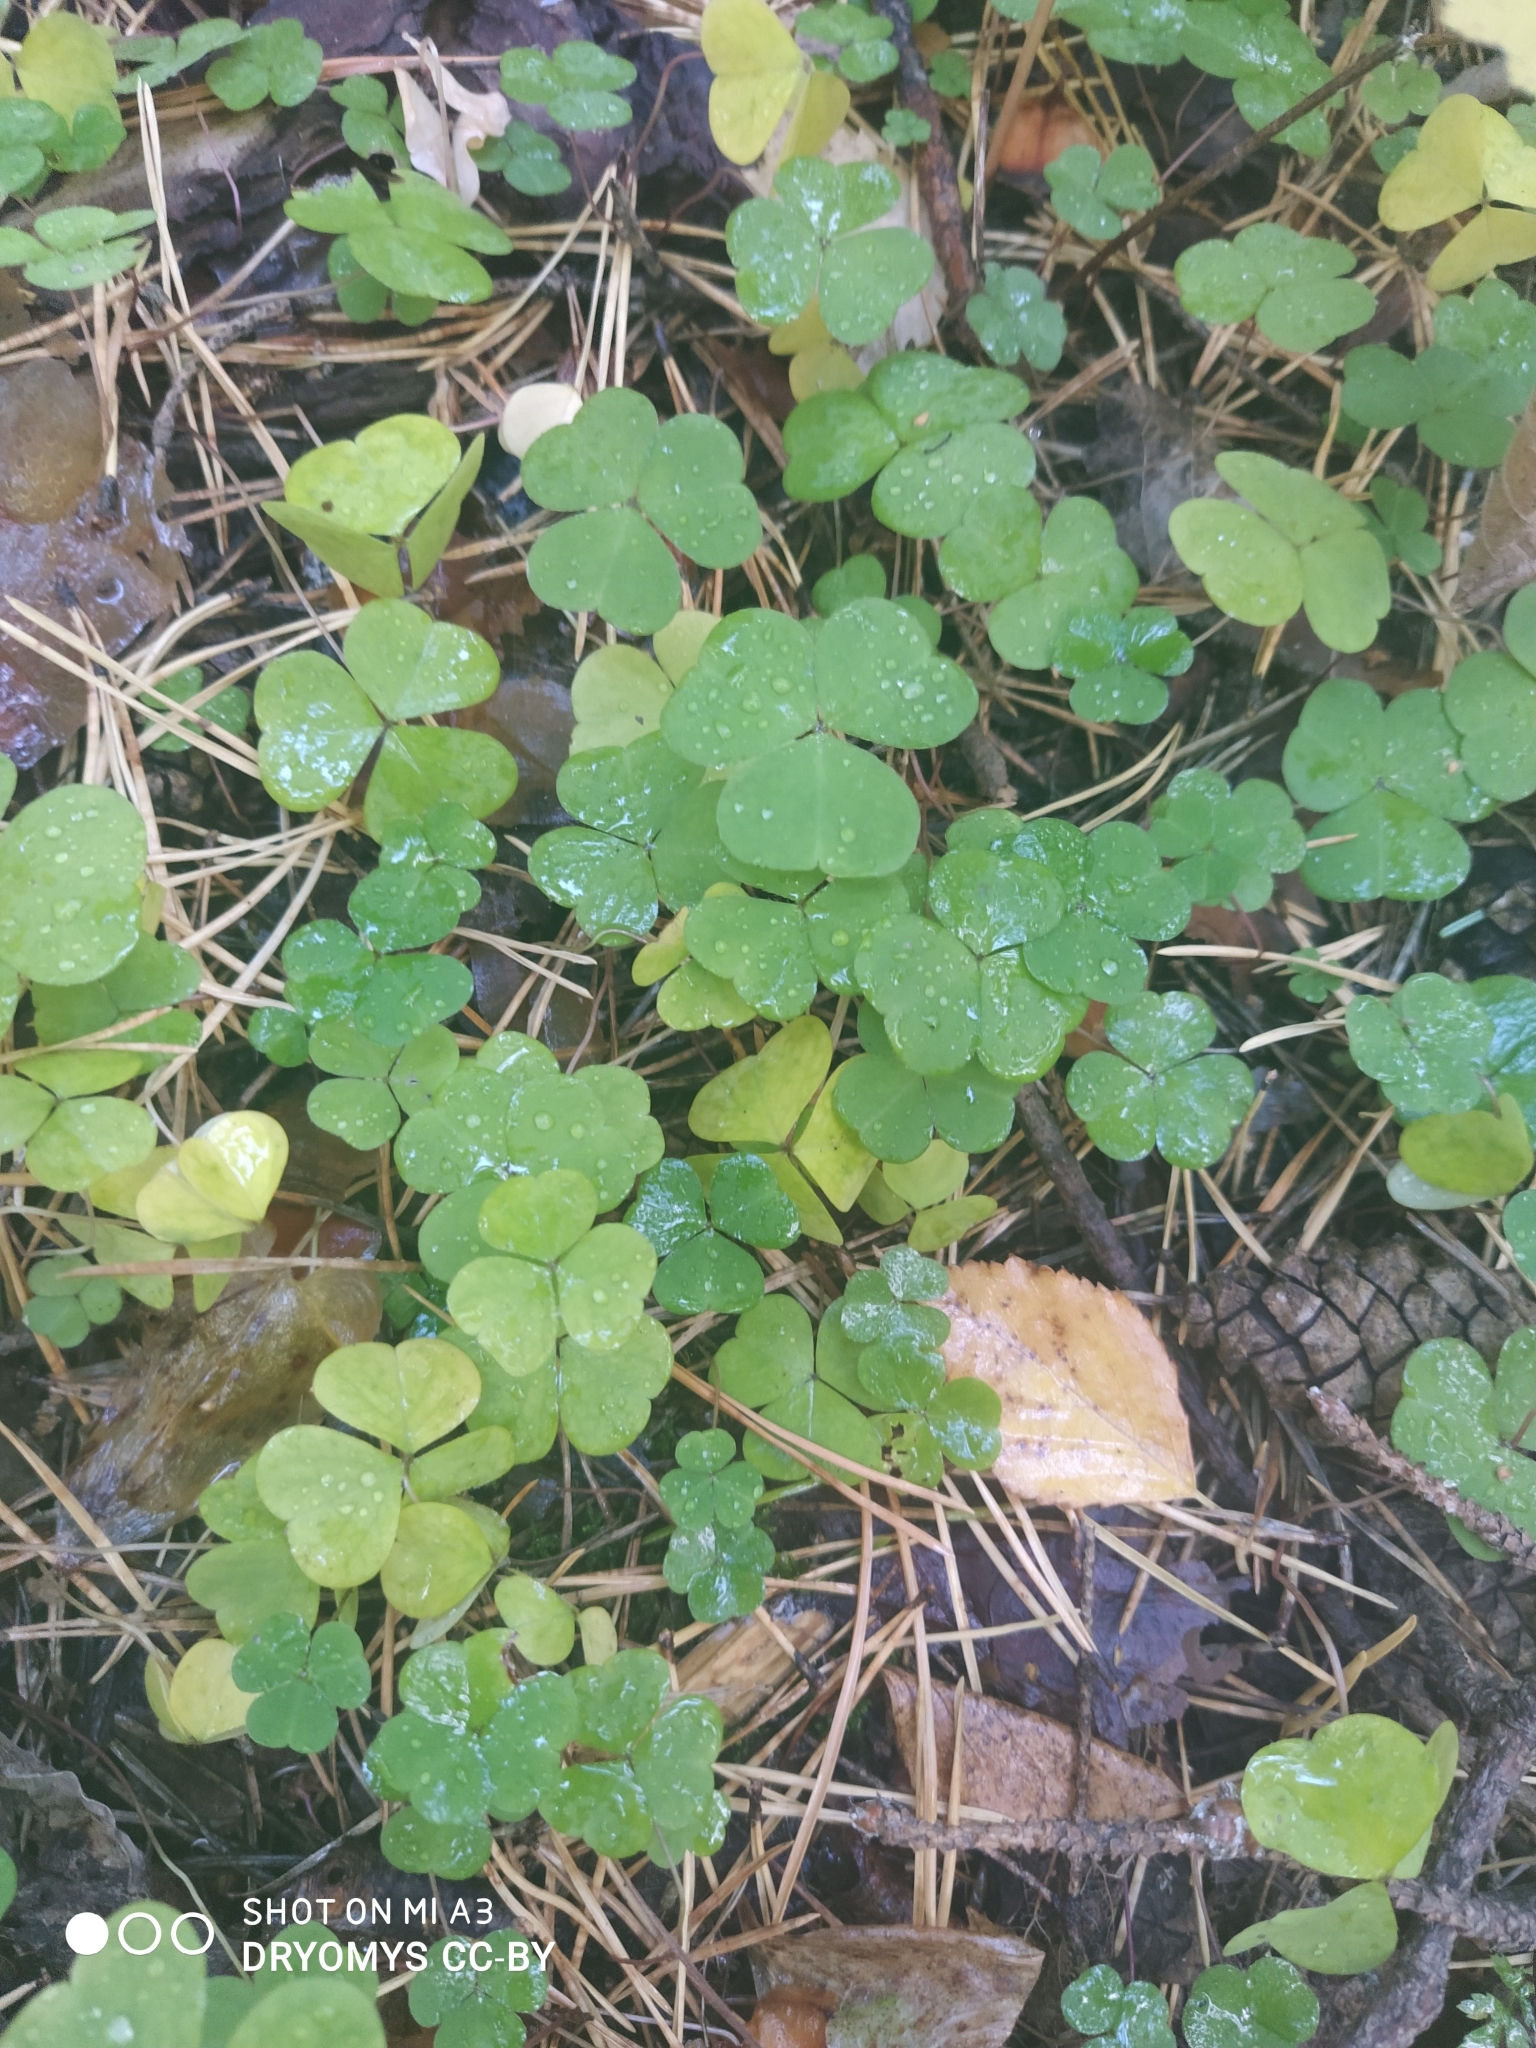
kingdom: Plantae
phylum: Tracheophyta
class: Magnoliopsida
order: Oxalidales
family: Oxalidaceae
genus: Oxalis
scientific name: Oxalis acetosella
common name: Wood-sorrel
